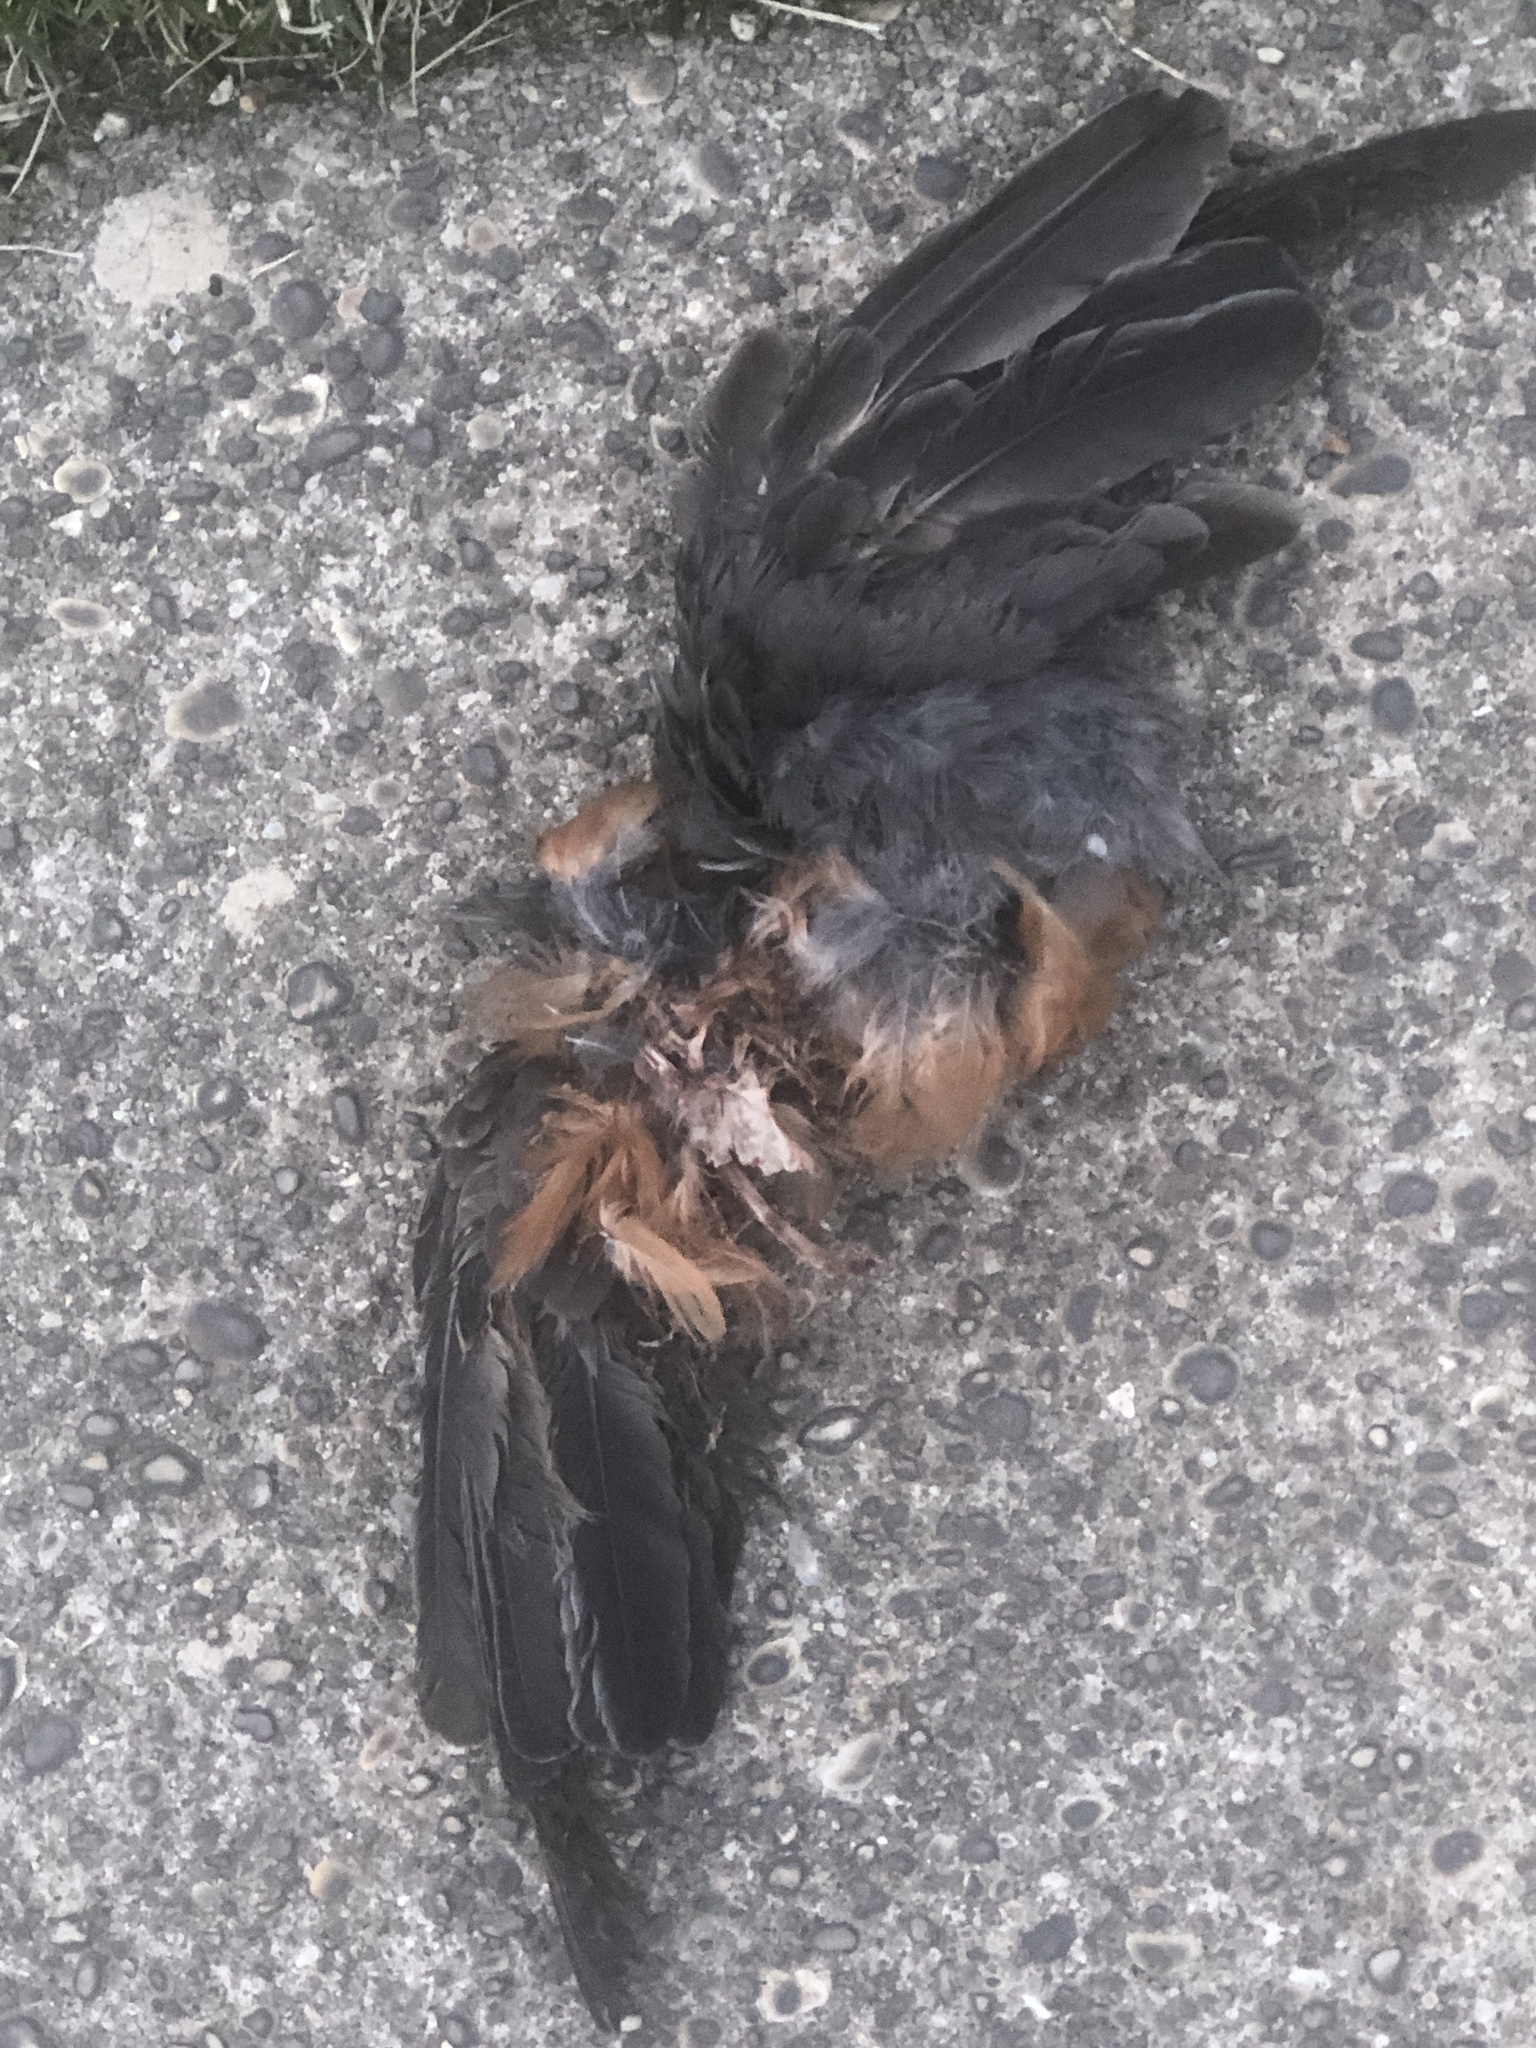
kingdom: Animalia
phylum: Chordata
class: Aves
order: Passeriformes
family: Turdidae
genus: Turdus
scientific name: Turdus migratorius
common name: American robin
